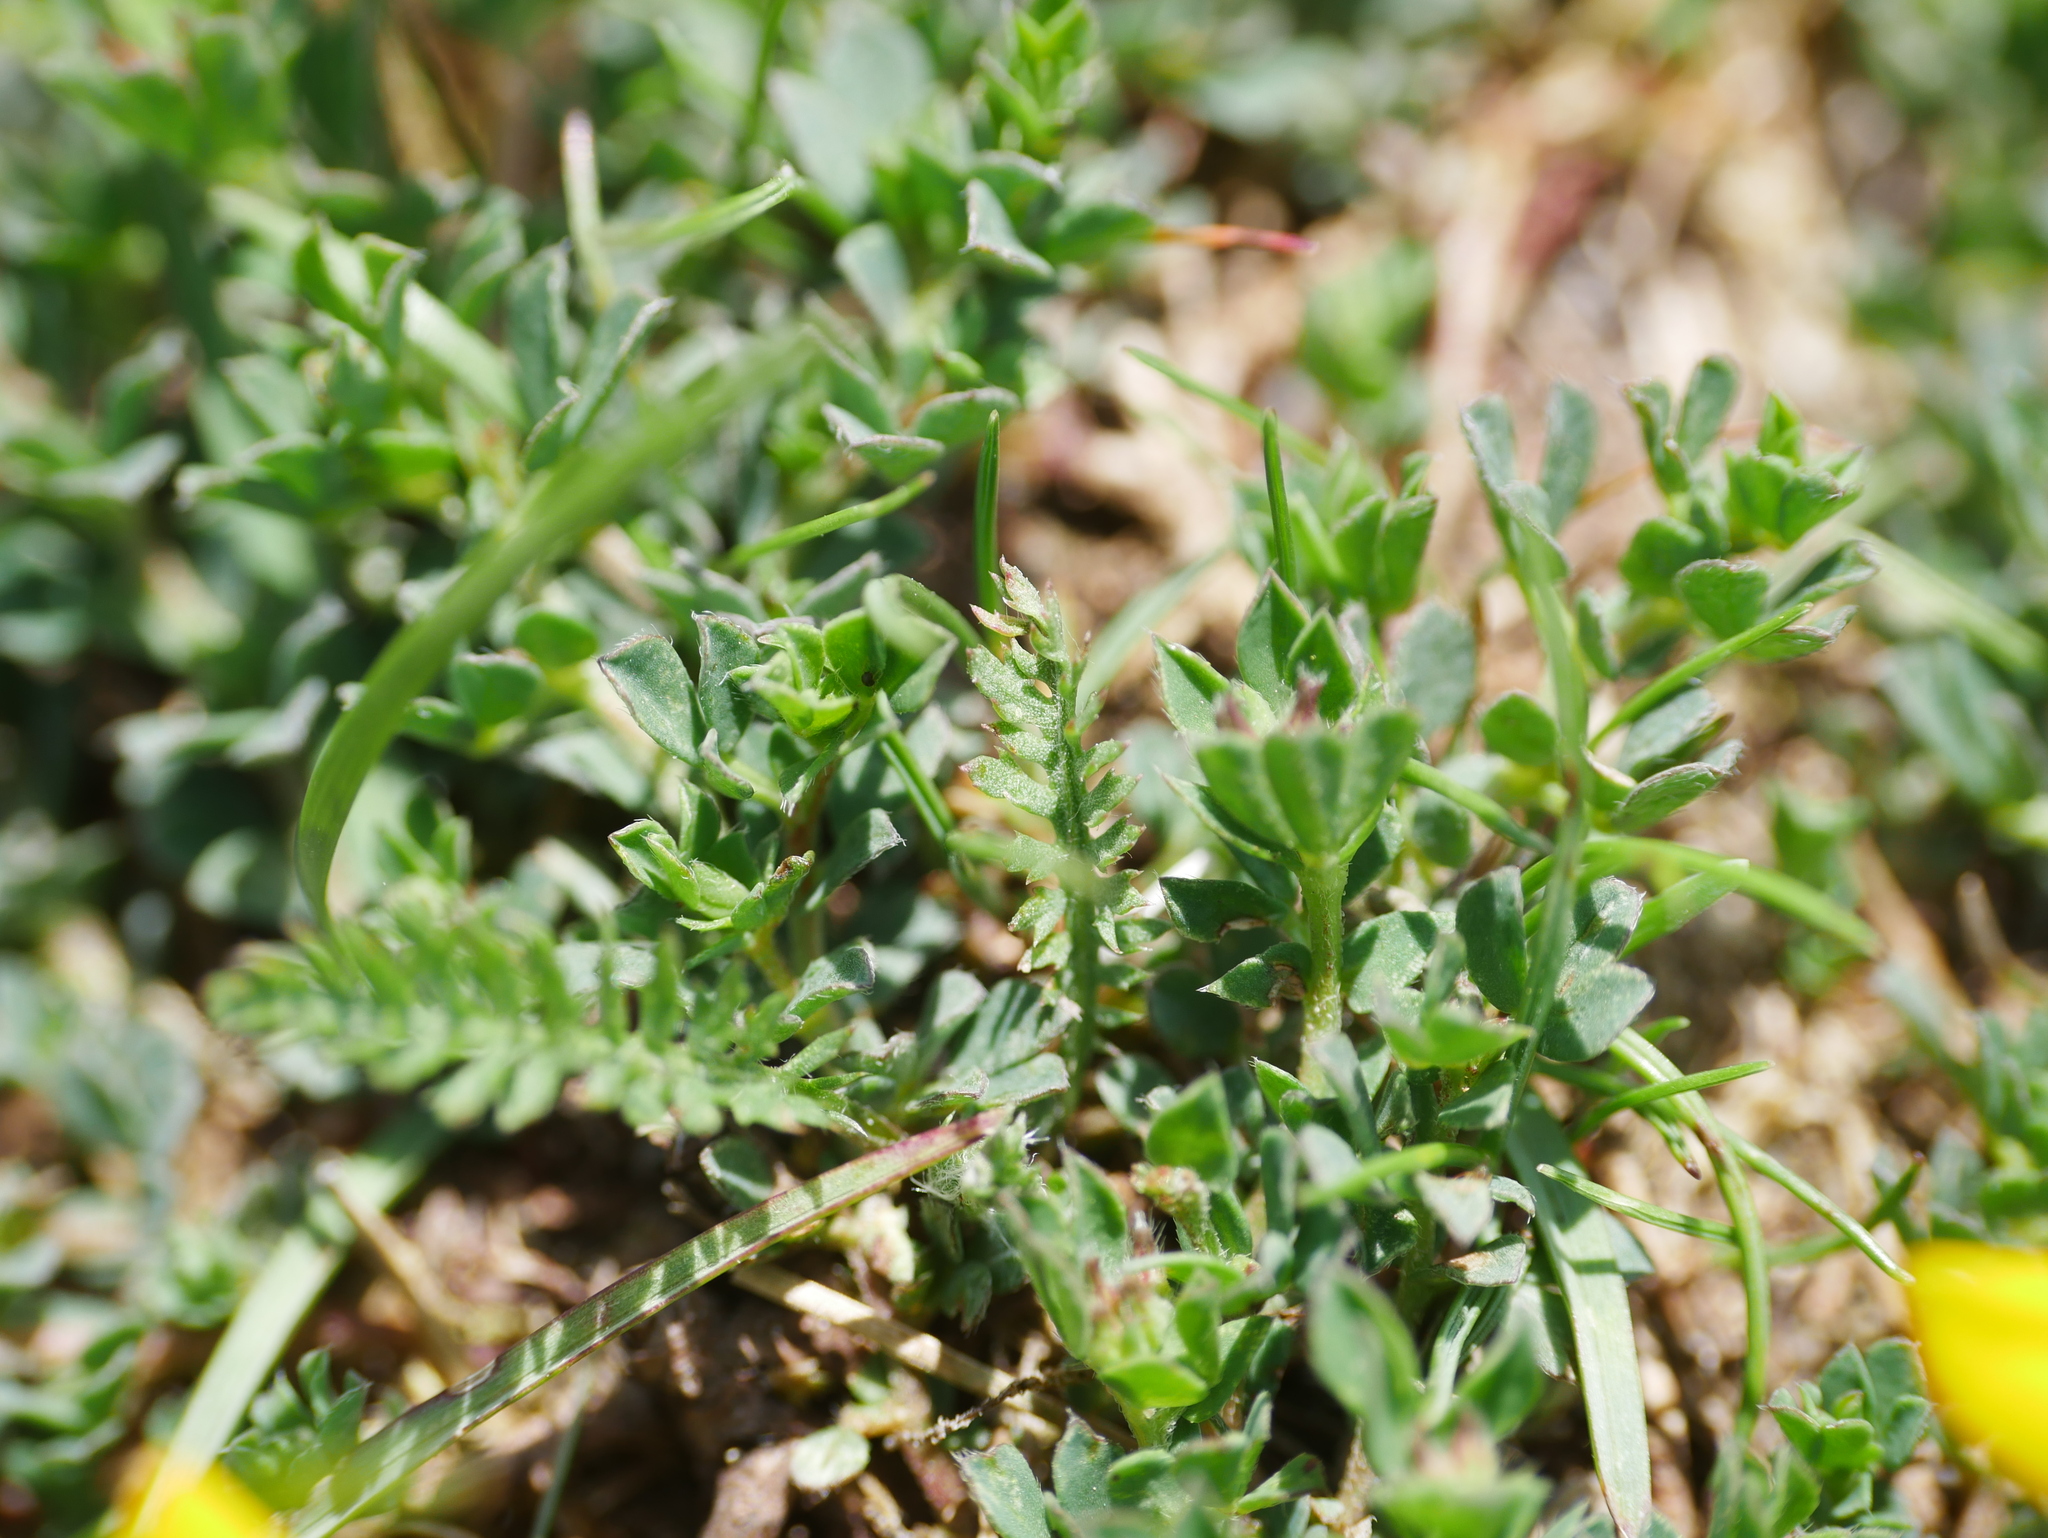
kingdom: Plantae
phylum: Tracheophyta
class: Magnoliopsida
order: Fabales
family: Fabaceae
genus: Lotus
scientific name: Lotus corniculatus
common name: Common bird's-foot-trefoil
